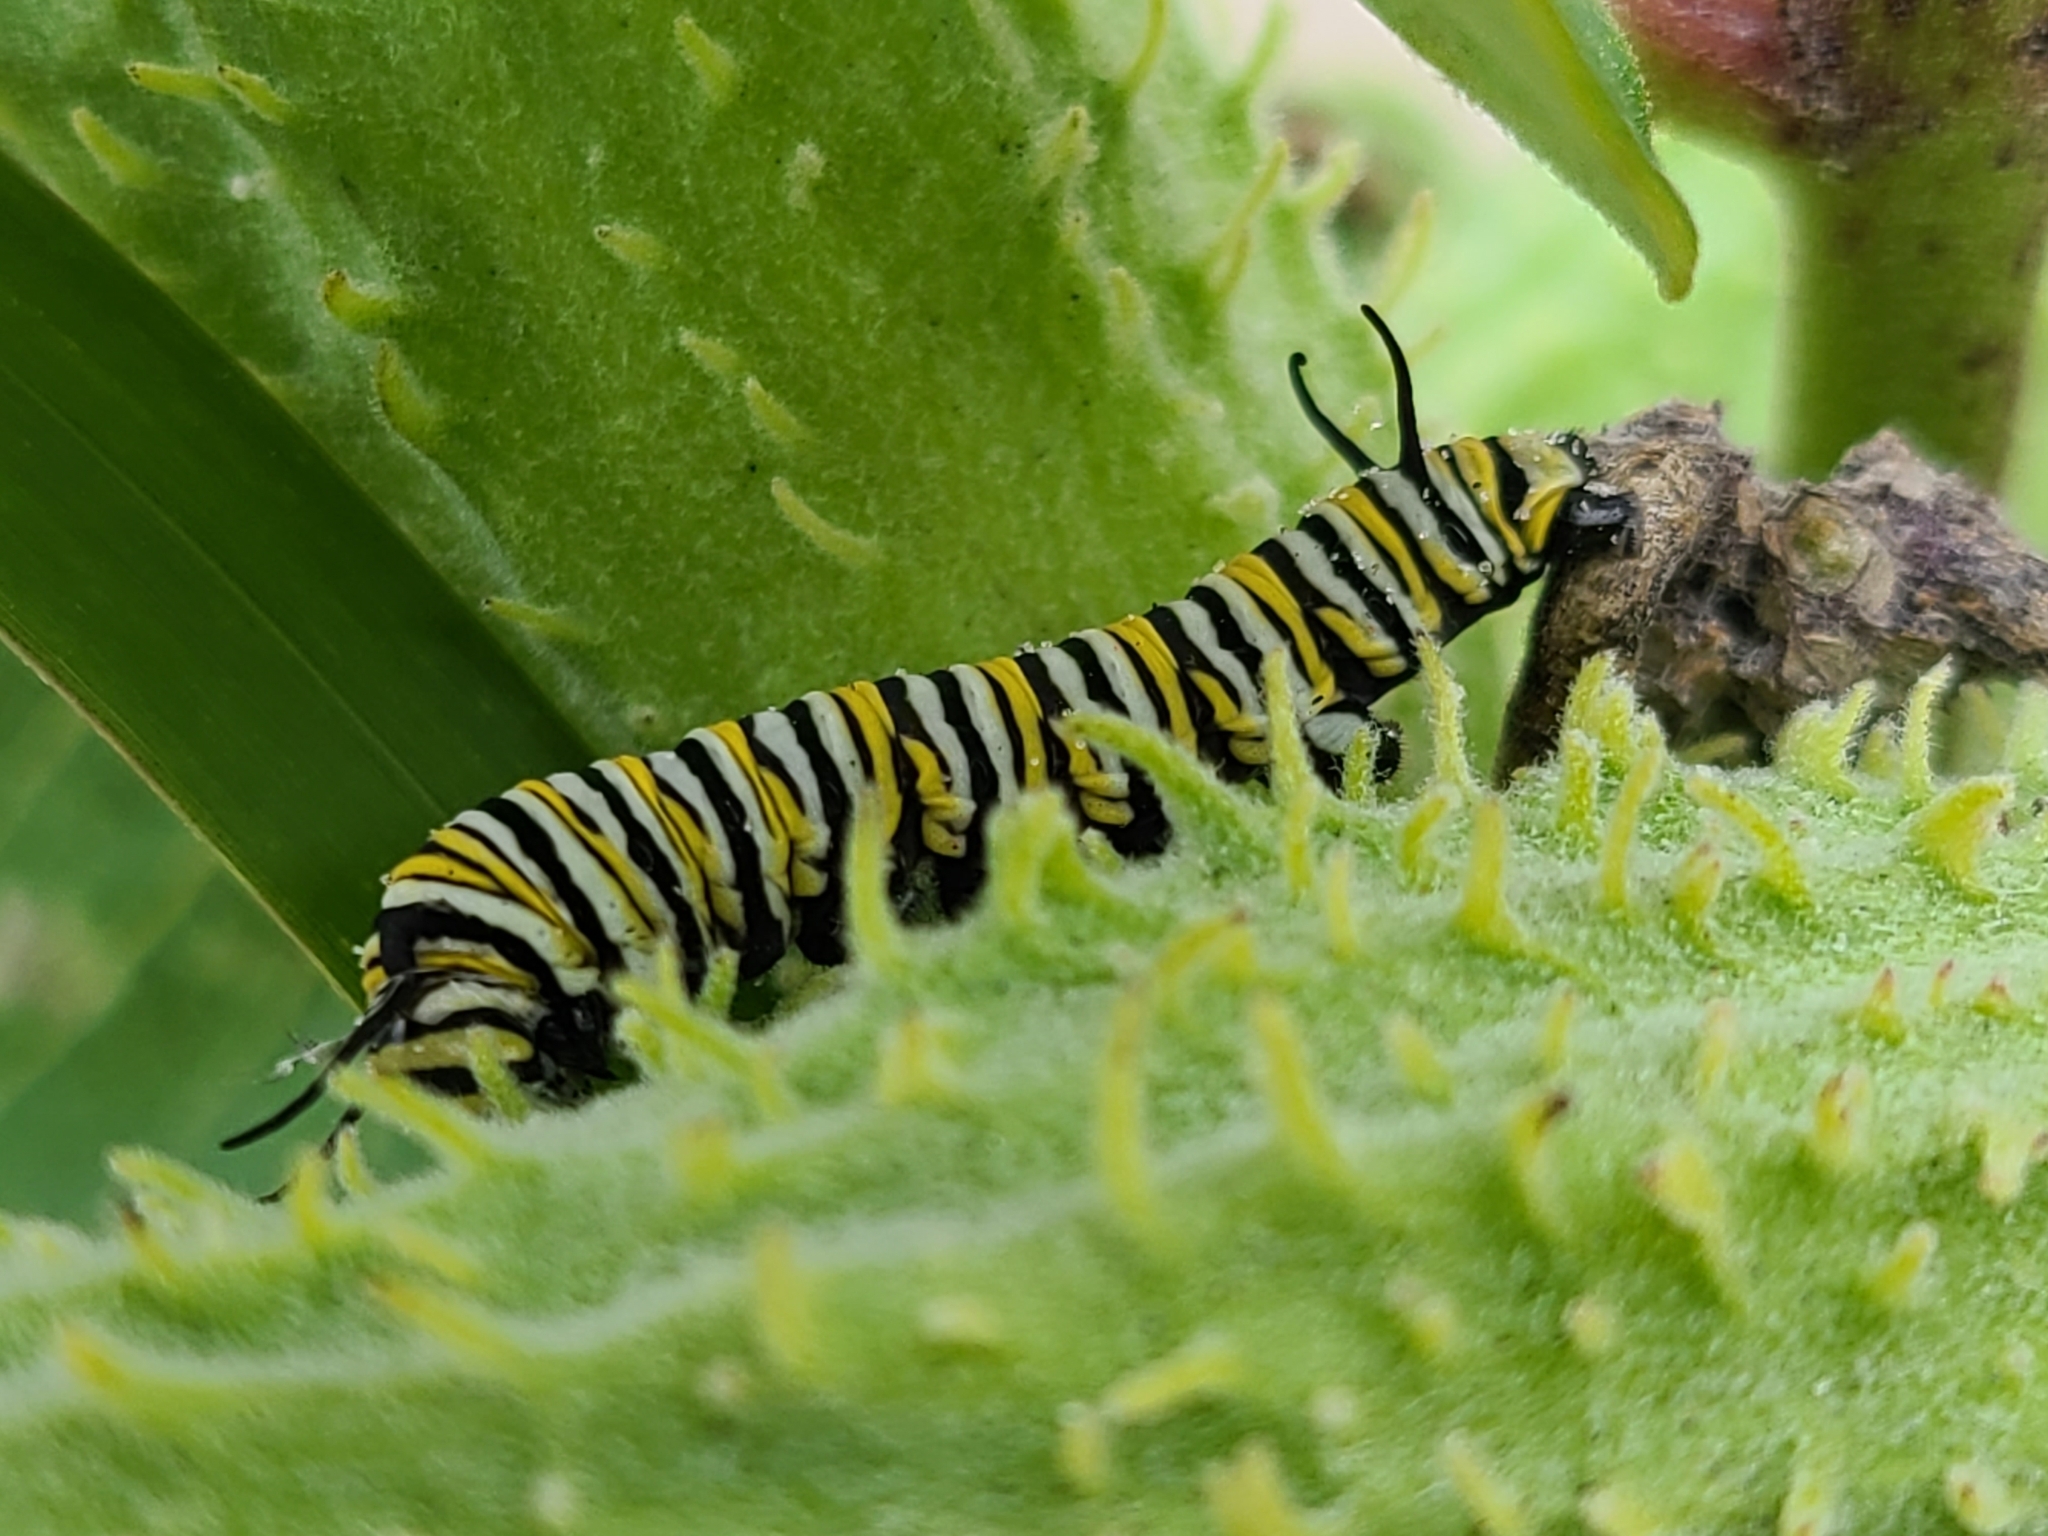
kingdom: Animalia
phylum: Arthropoda
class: Insecta
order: Lepidoptera
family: Nymphalidae
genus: Danaus
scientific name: Danaus plexippus
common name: Monarch
